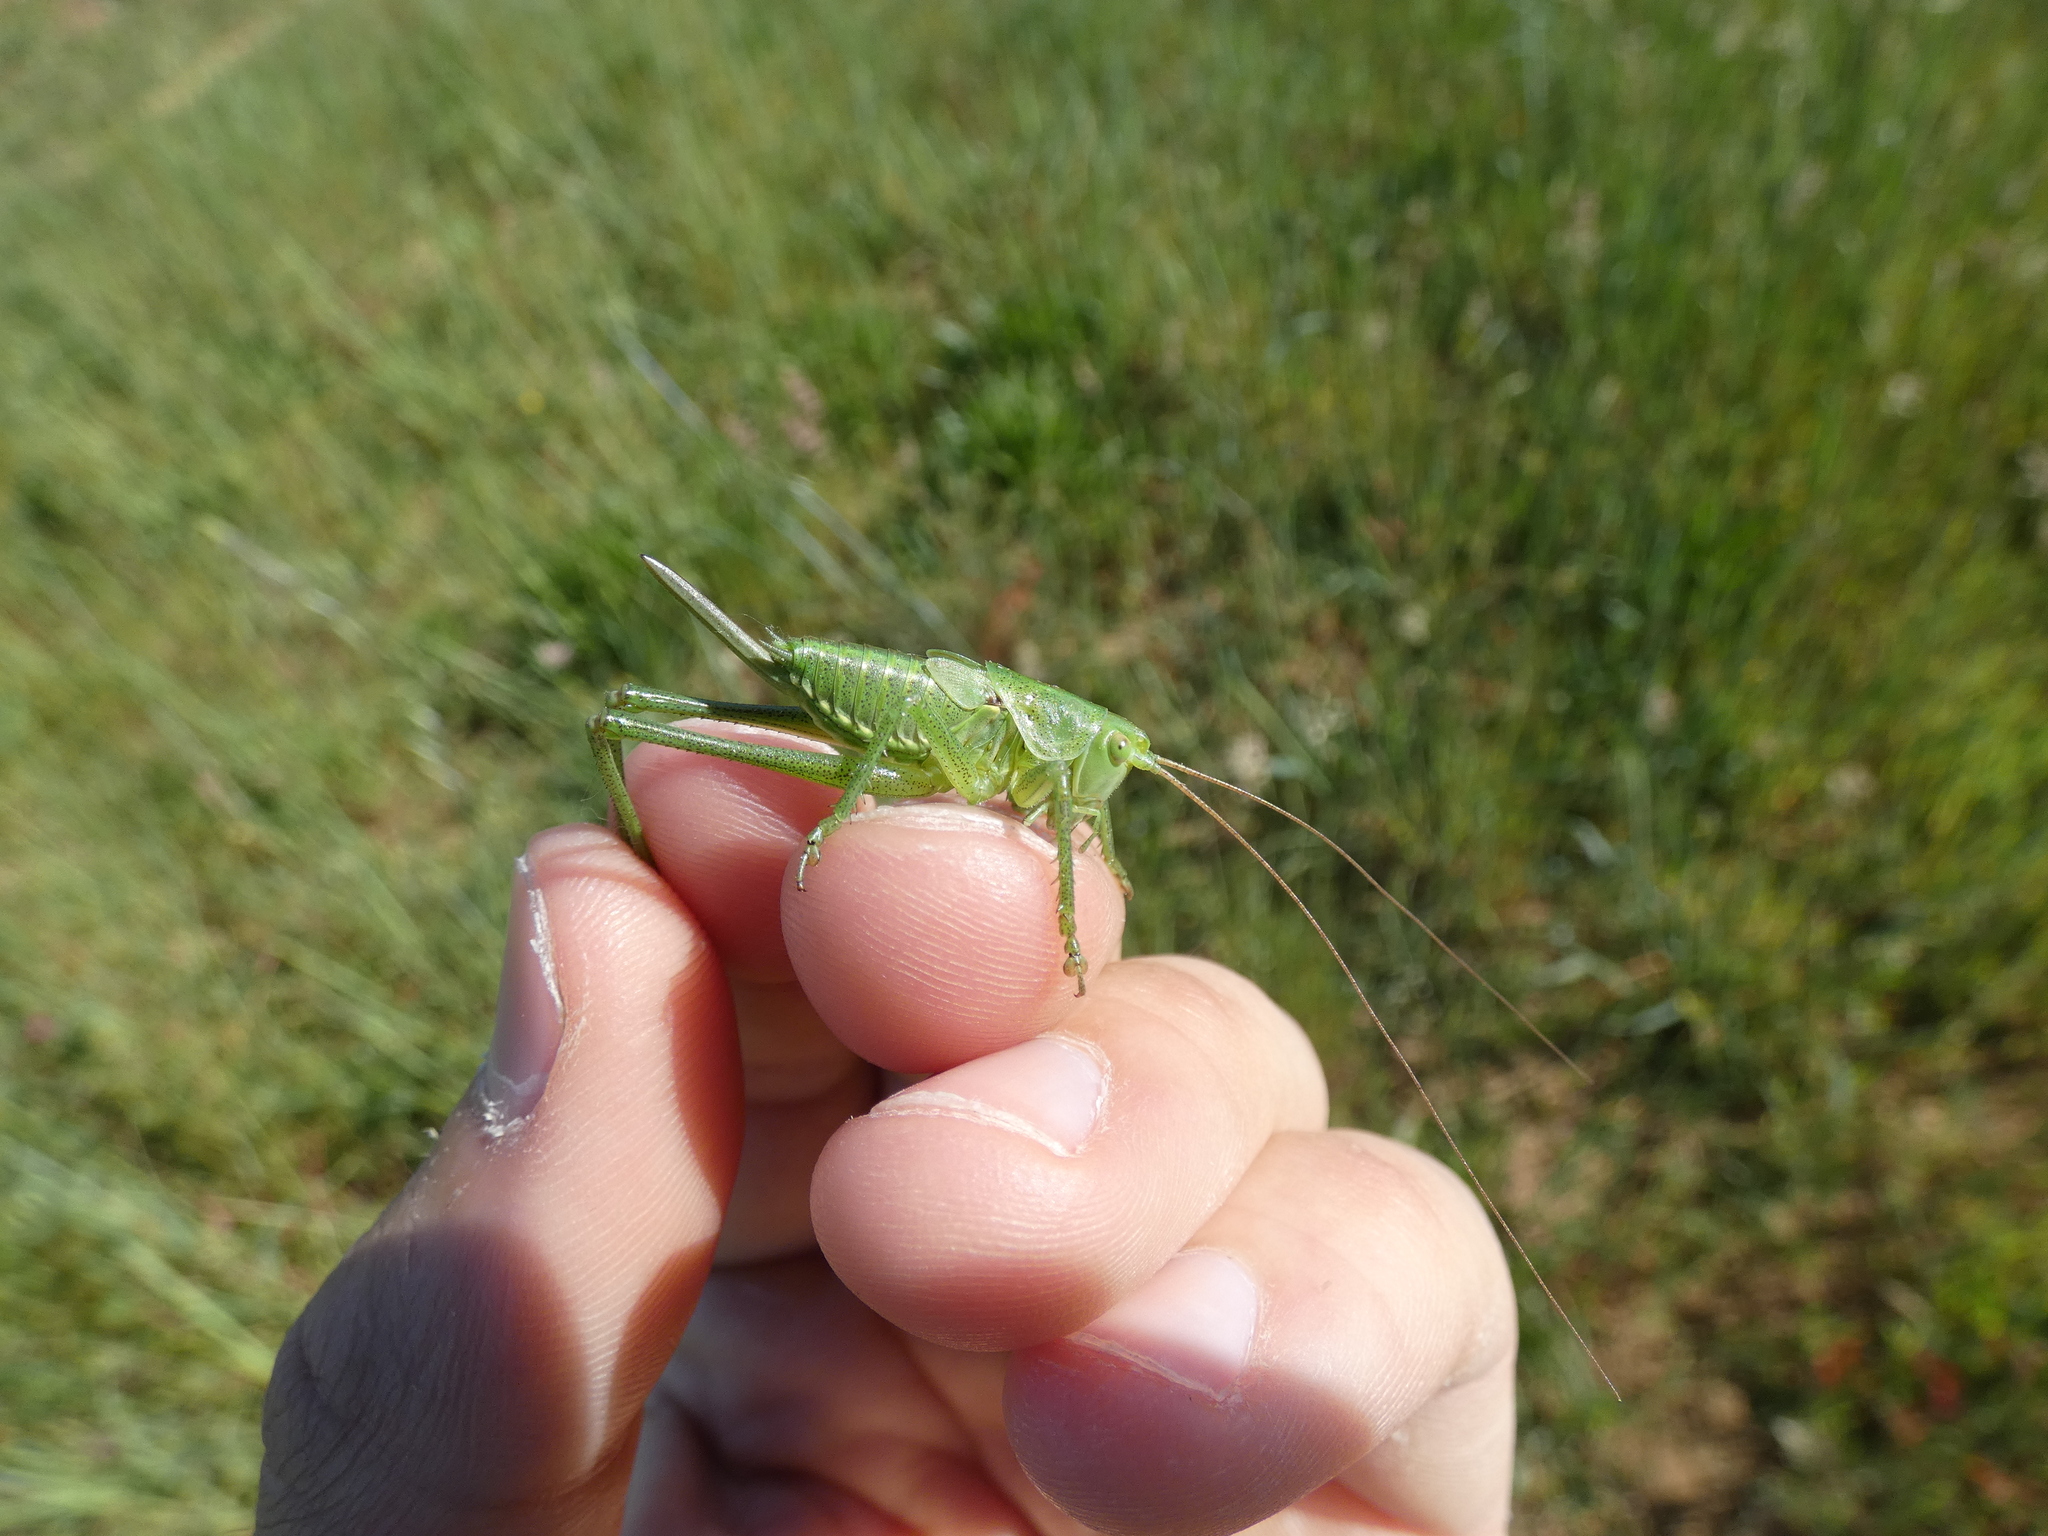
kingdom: Animalia
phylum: Arthropoda
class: Insecta
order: Orthoptera
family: Tettigoniidae
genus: Tettigonia
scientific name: Tettigonia viridissima
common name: Great green bush-cricket
